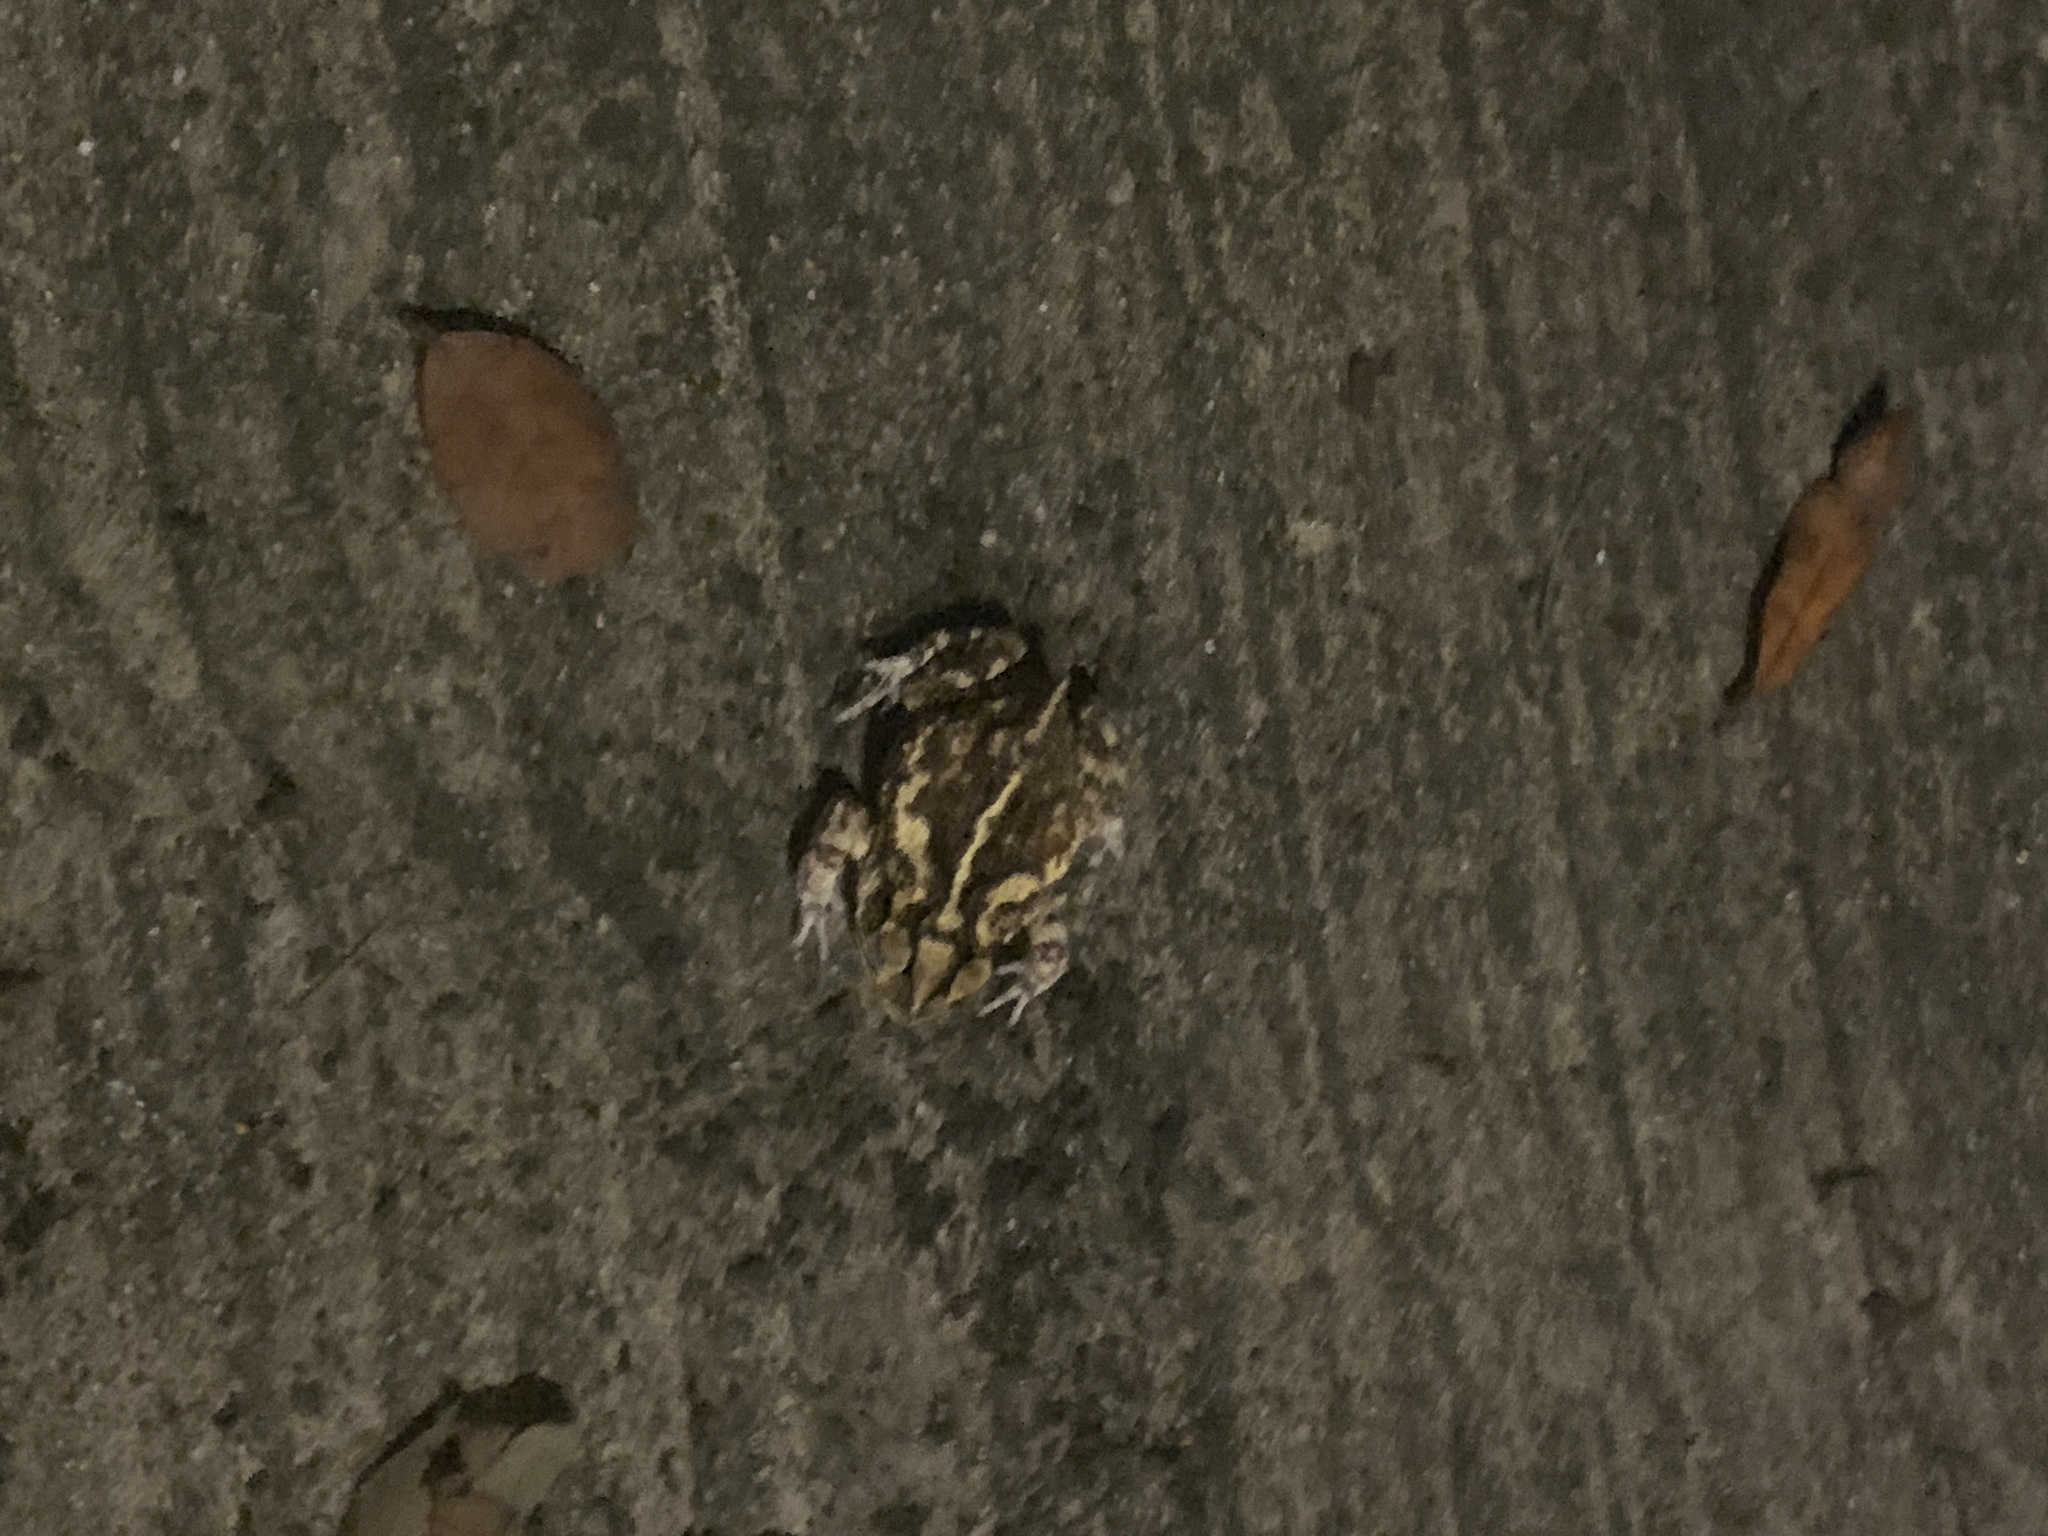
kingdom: Animalia
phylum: Chordata
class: Amphibia
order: Anura
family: Bufonidae
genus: Incilius
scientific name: Incilius nebulifer
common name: Gulf coast toad
